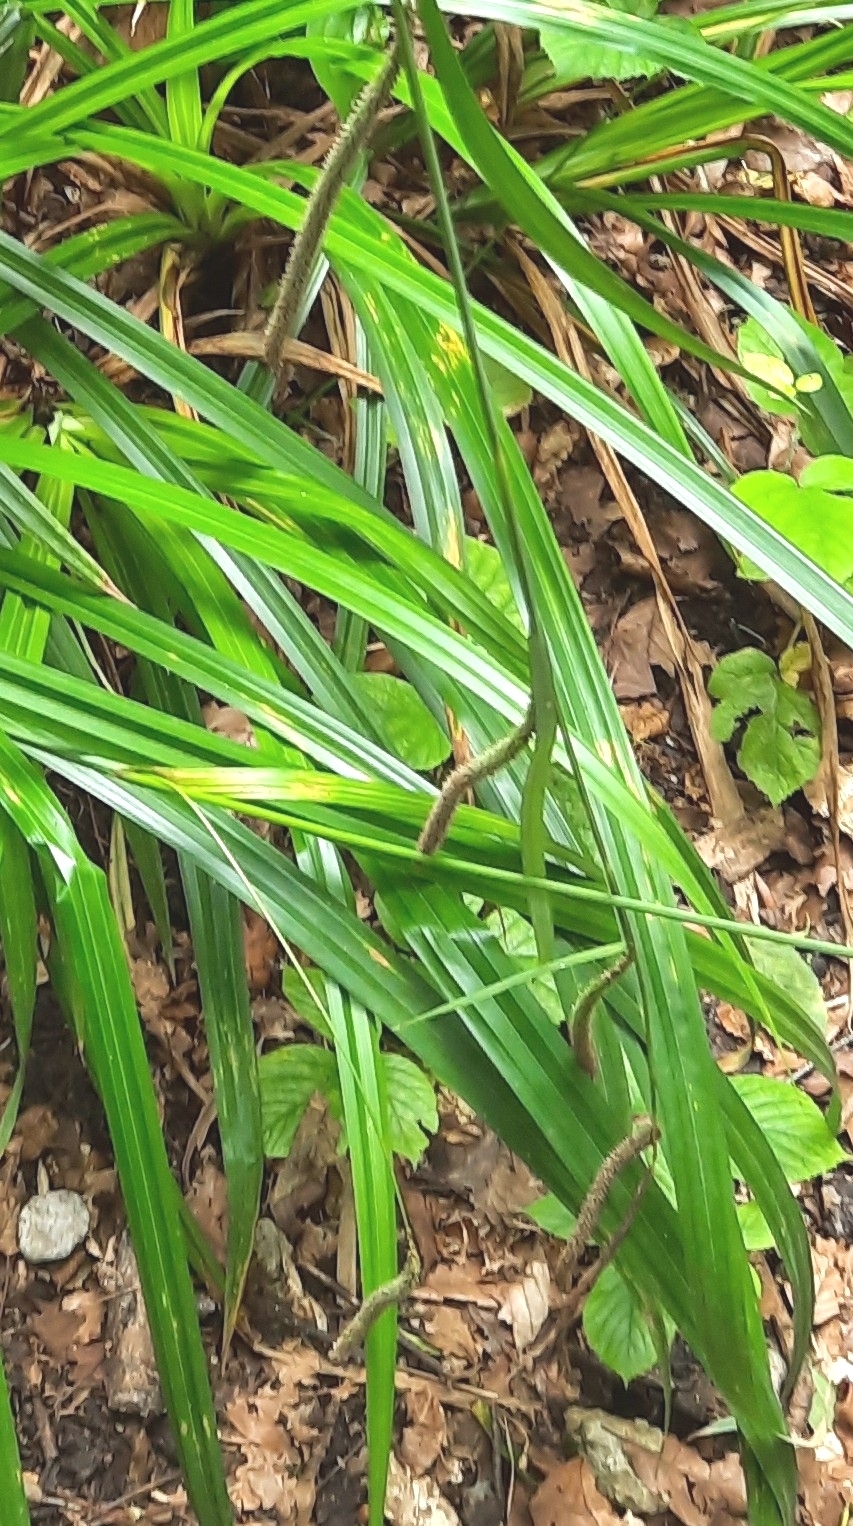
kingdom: Plantae
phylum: Tracheophyta
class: Liliopsida
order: Poales
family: Cyperaceae
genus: Carex
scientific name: Carex pendula
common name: Pendulous sedge
